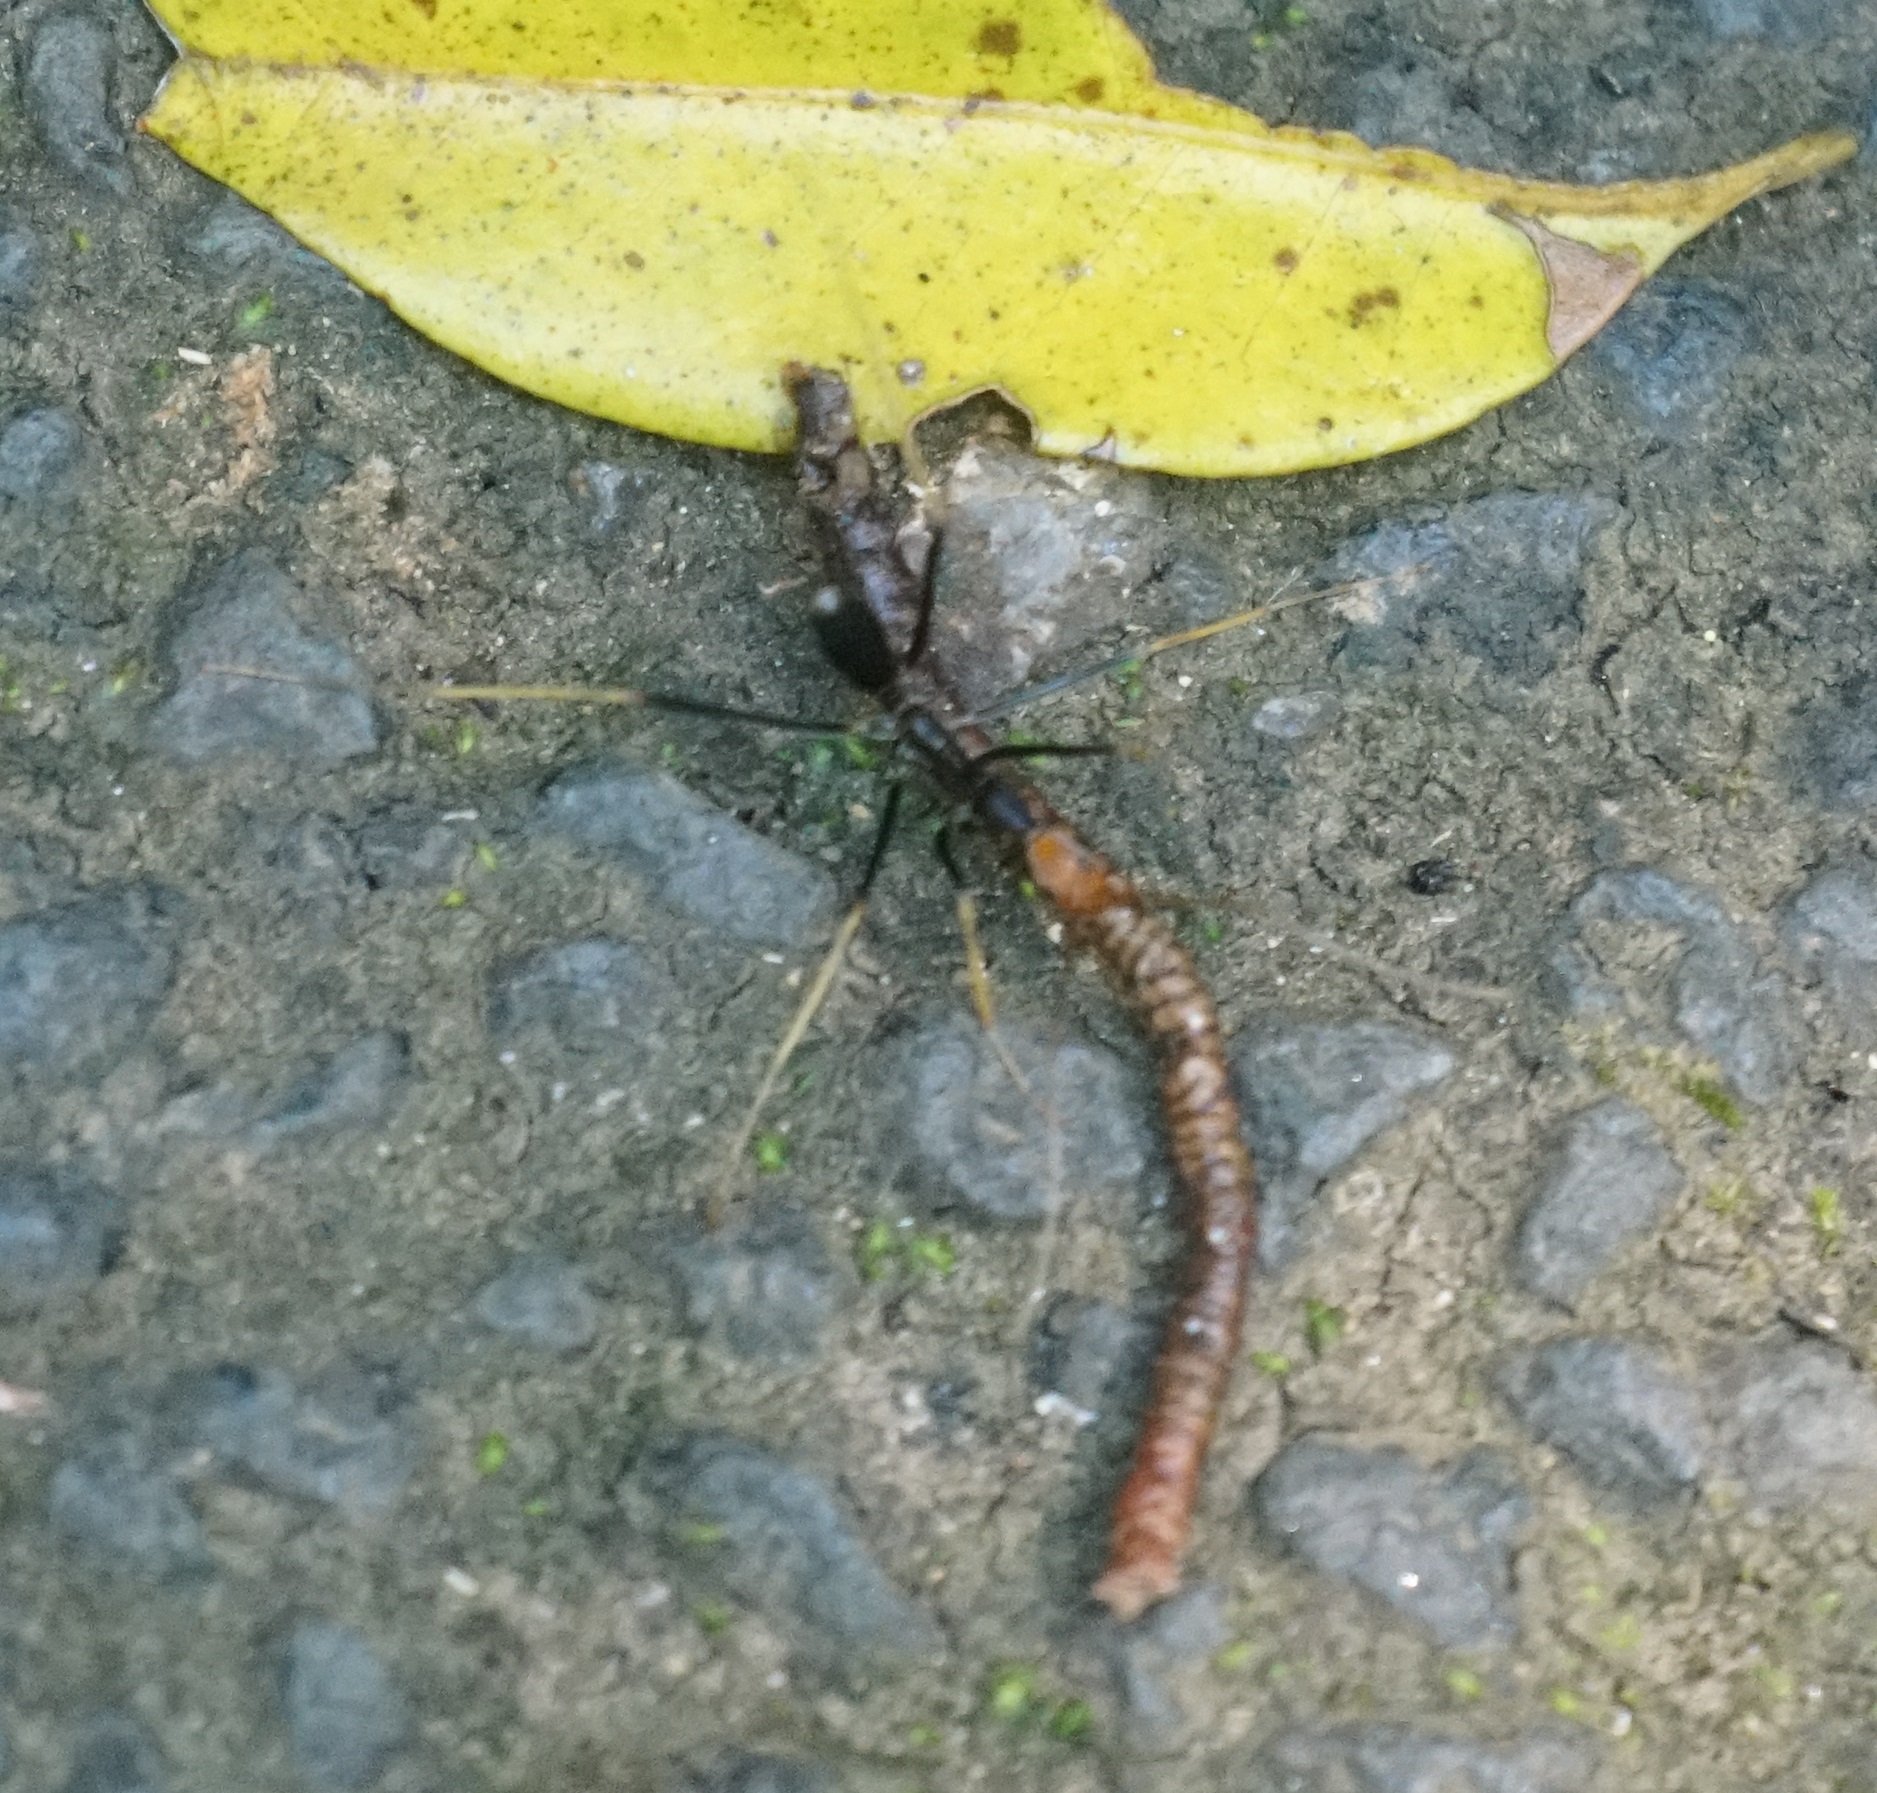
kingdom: Animalia
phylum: Arthropoda
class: Insecta
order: Hymenoptera
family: Formicidae
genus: Leptomyrmex
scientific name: Leptomyrmex ruficeps
